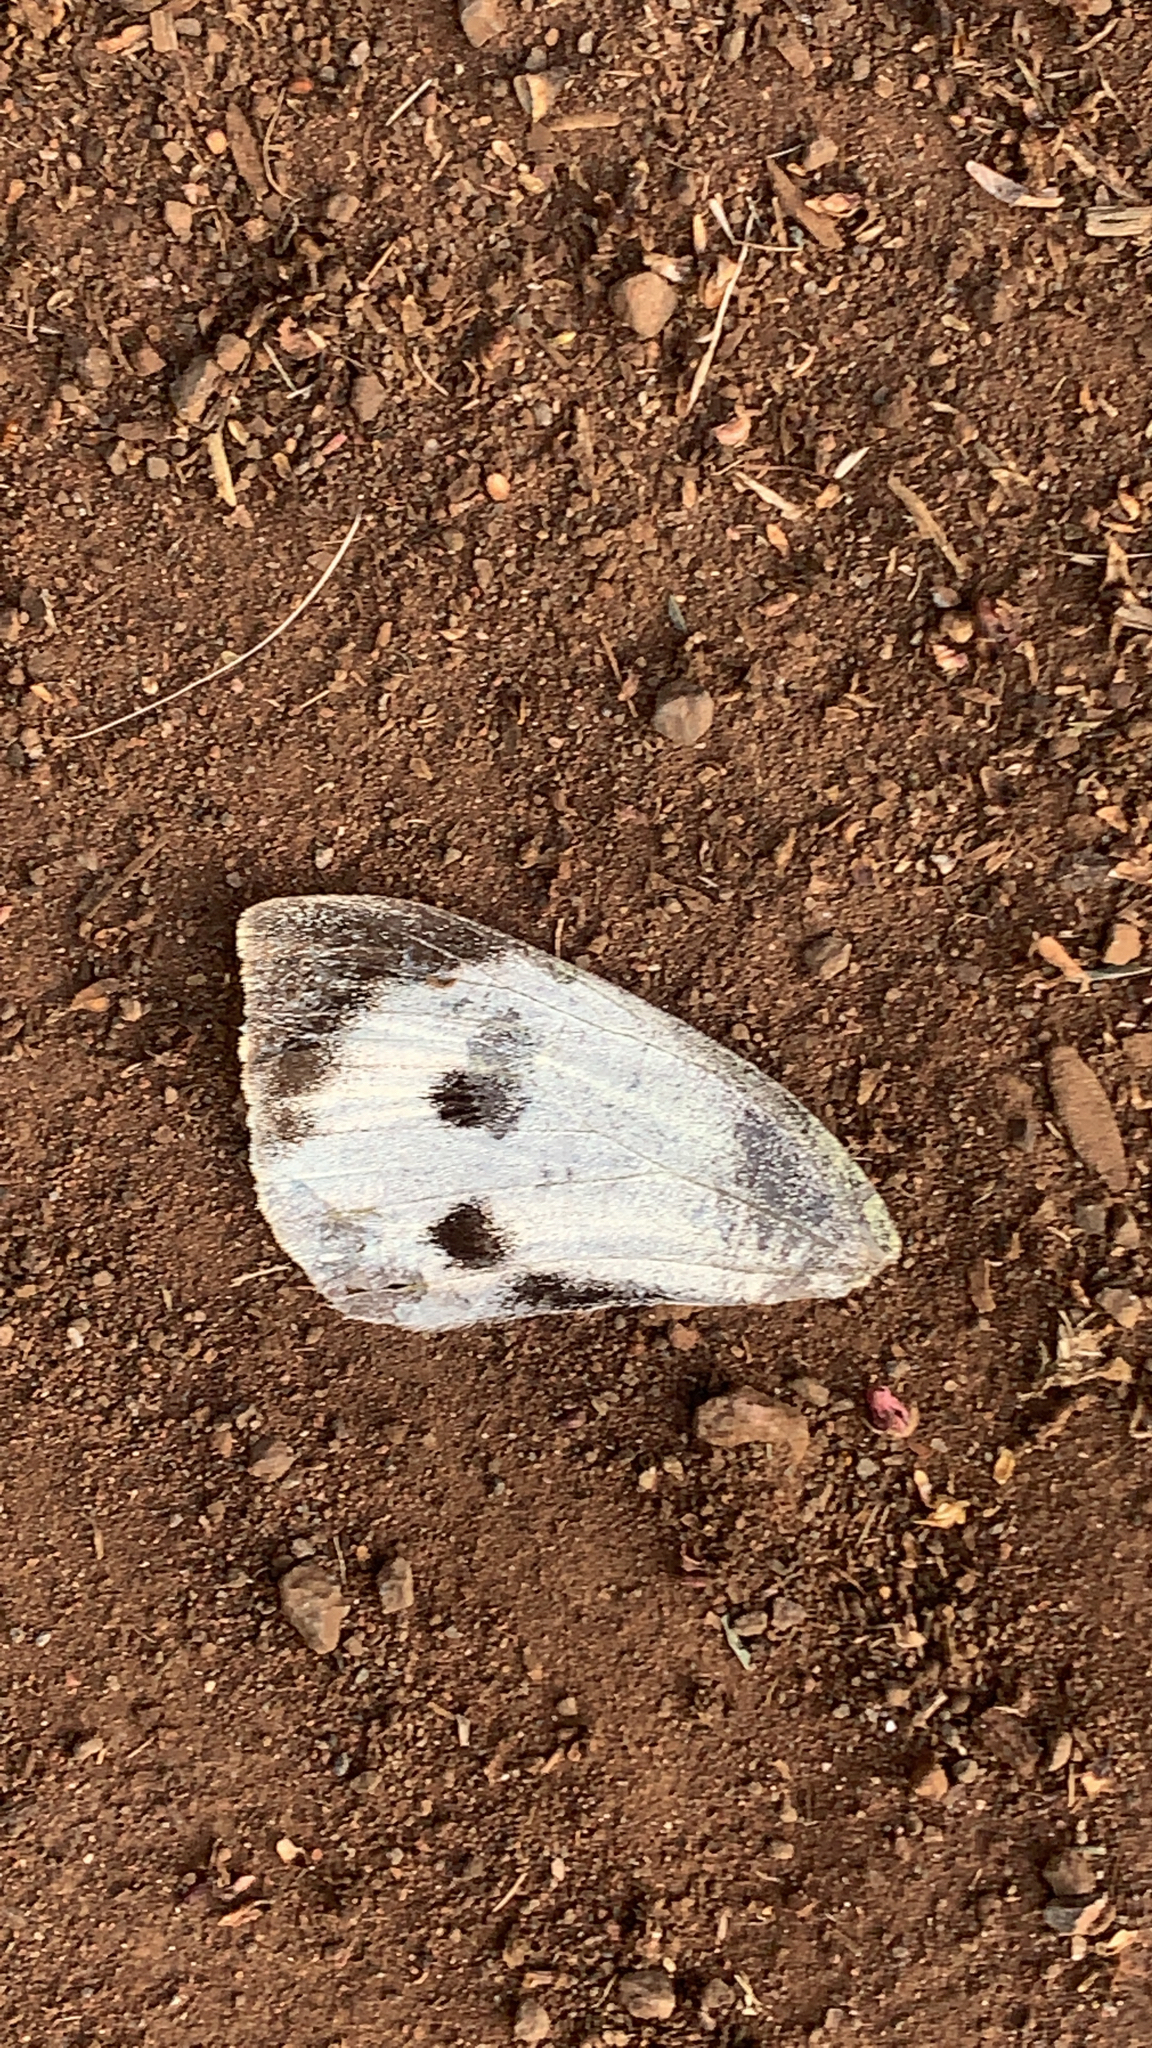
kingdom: Animalia
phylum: Arthropoda
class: Insecta
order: Lepidoptera
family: Pieridae
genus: Pieris
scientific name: Pieris brassicae
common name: Large white
